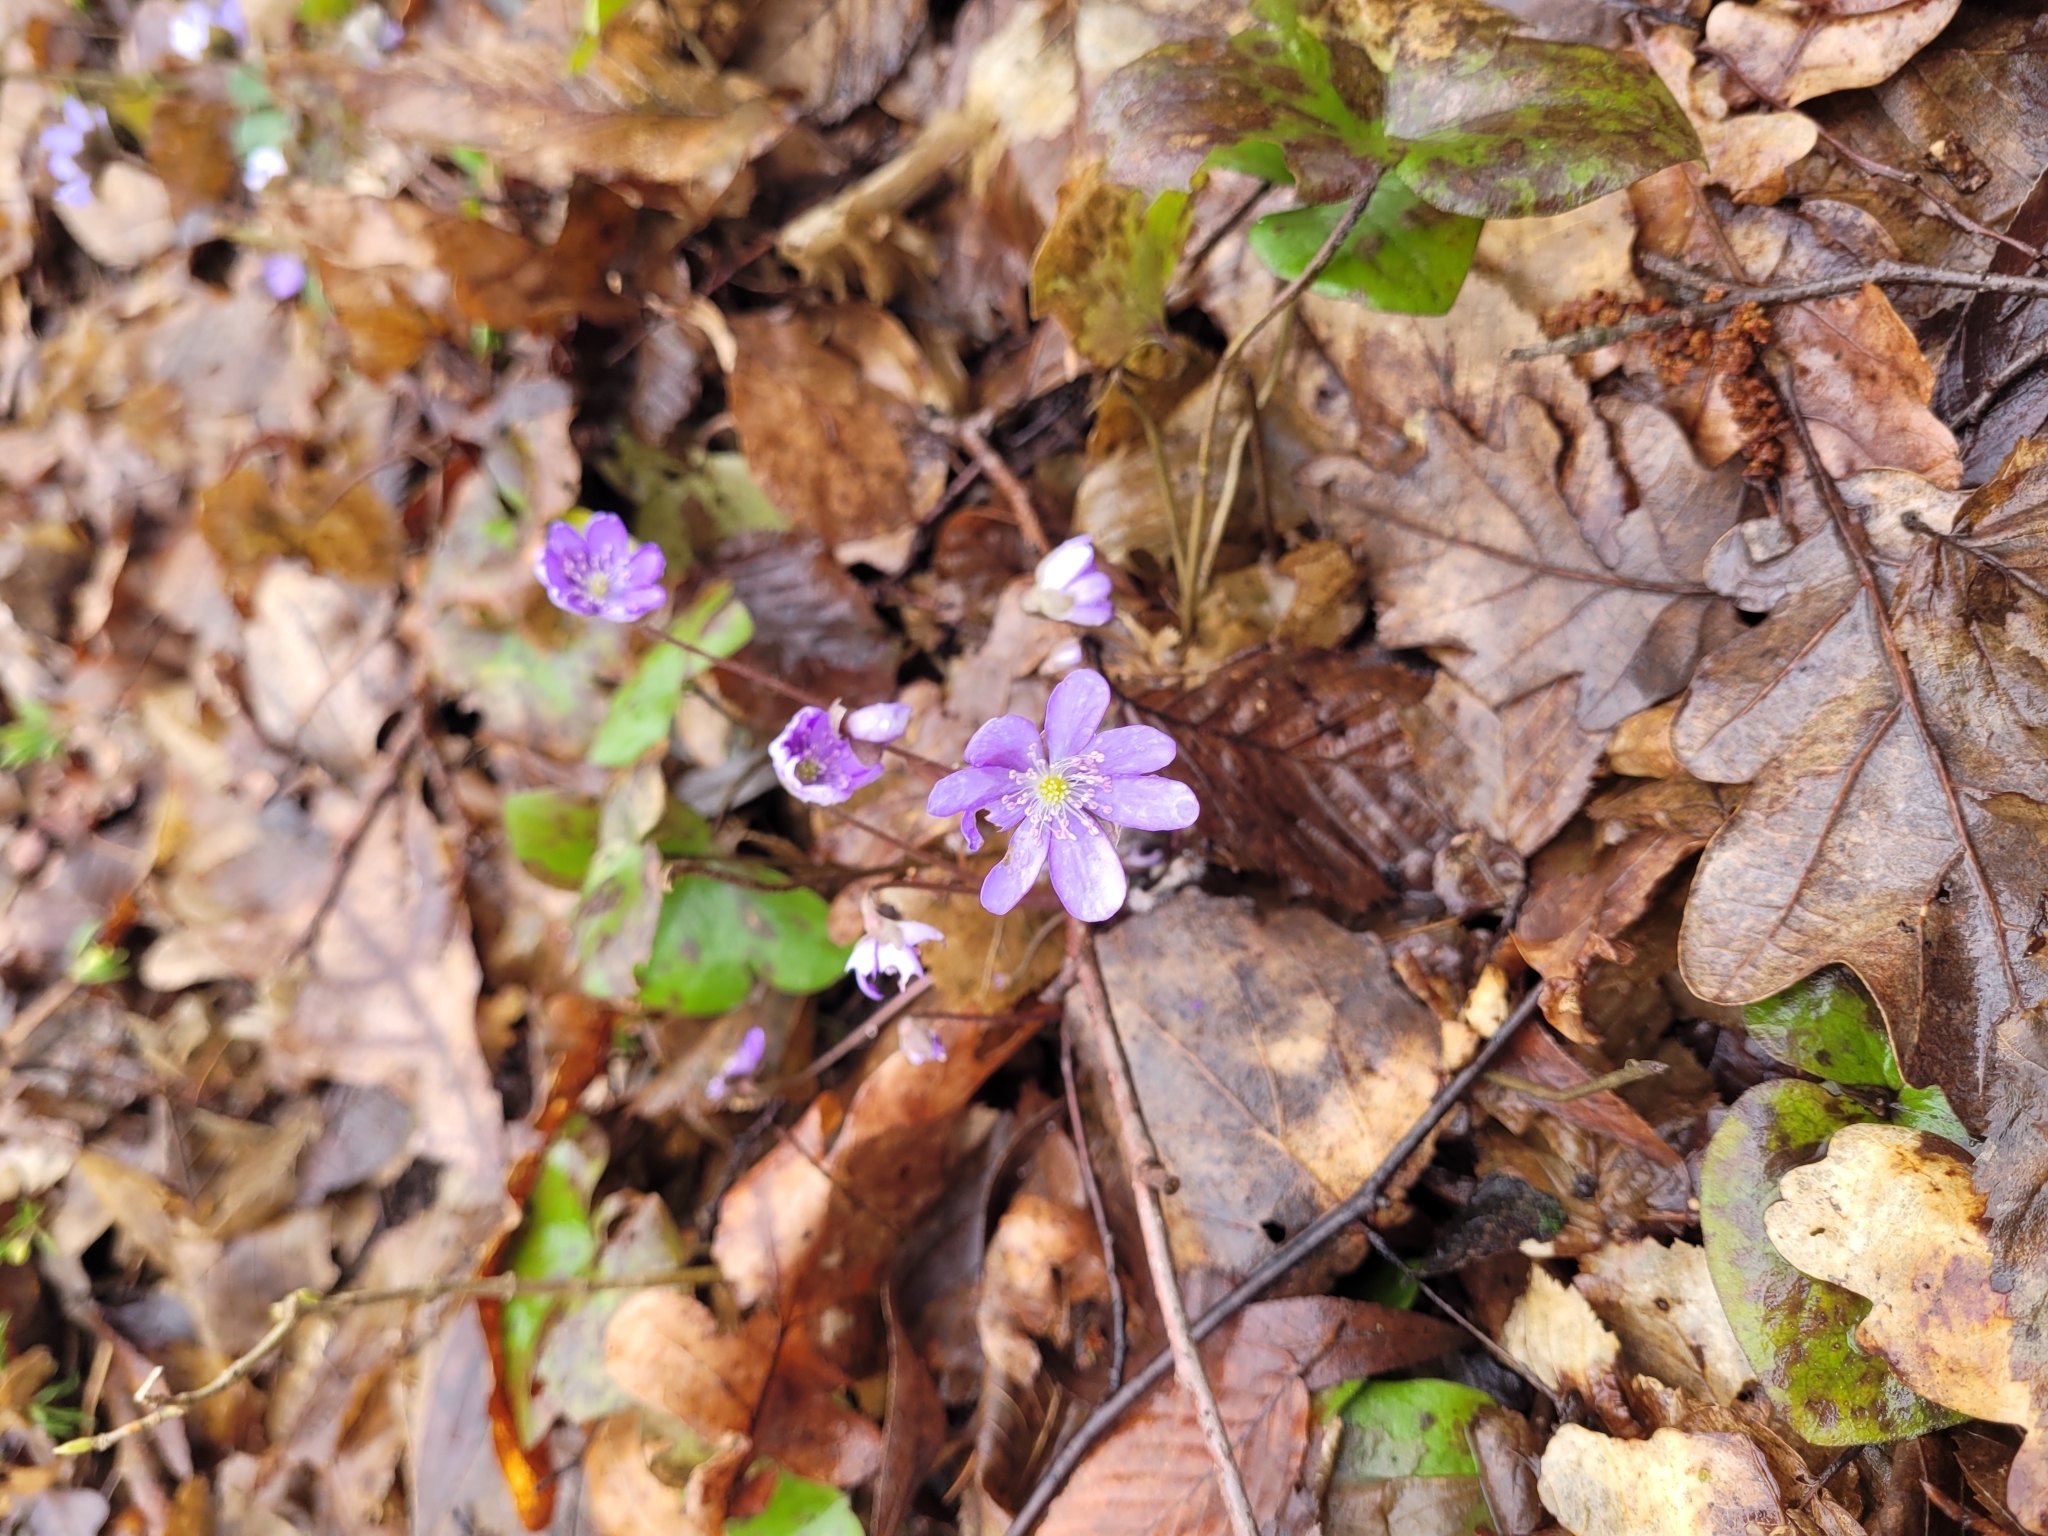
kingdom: Plantae
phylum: Tracheophyta
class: Magnoliopsida
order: Ranunculales
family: Ranunculaceae
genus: Hepatica
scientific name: Hepatica nobilis
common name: Liverleaf
